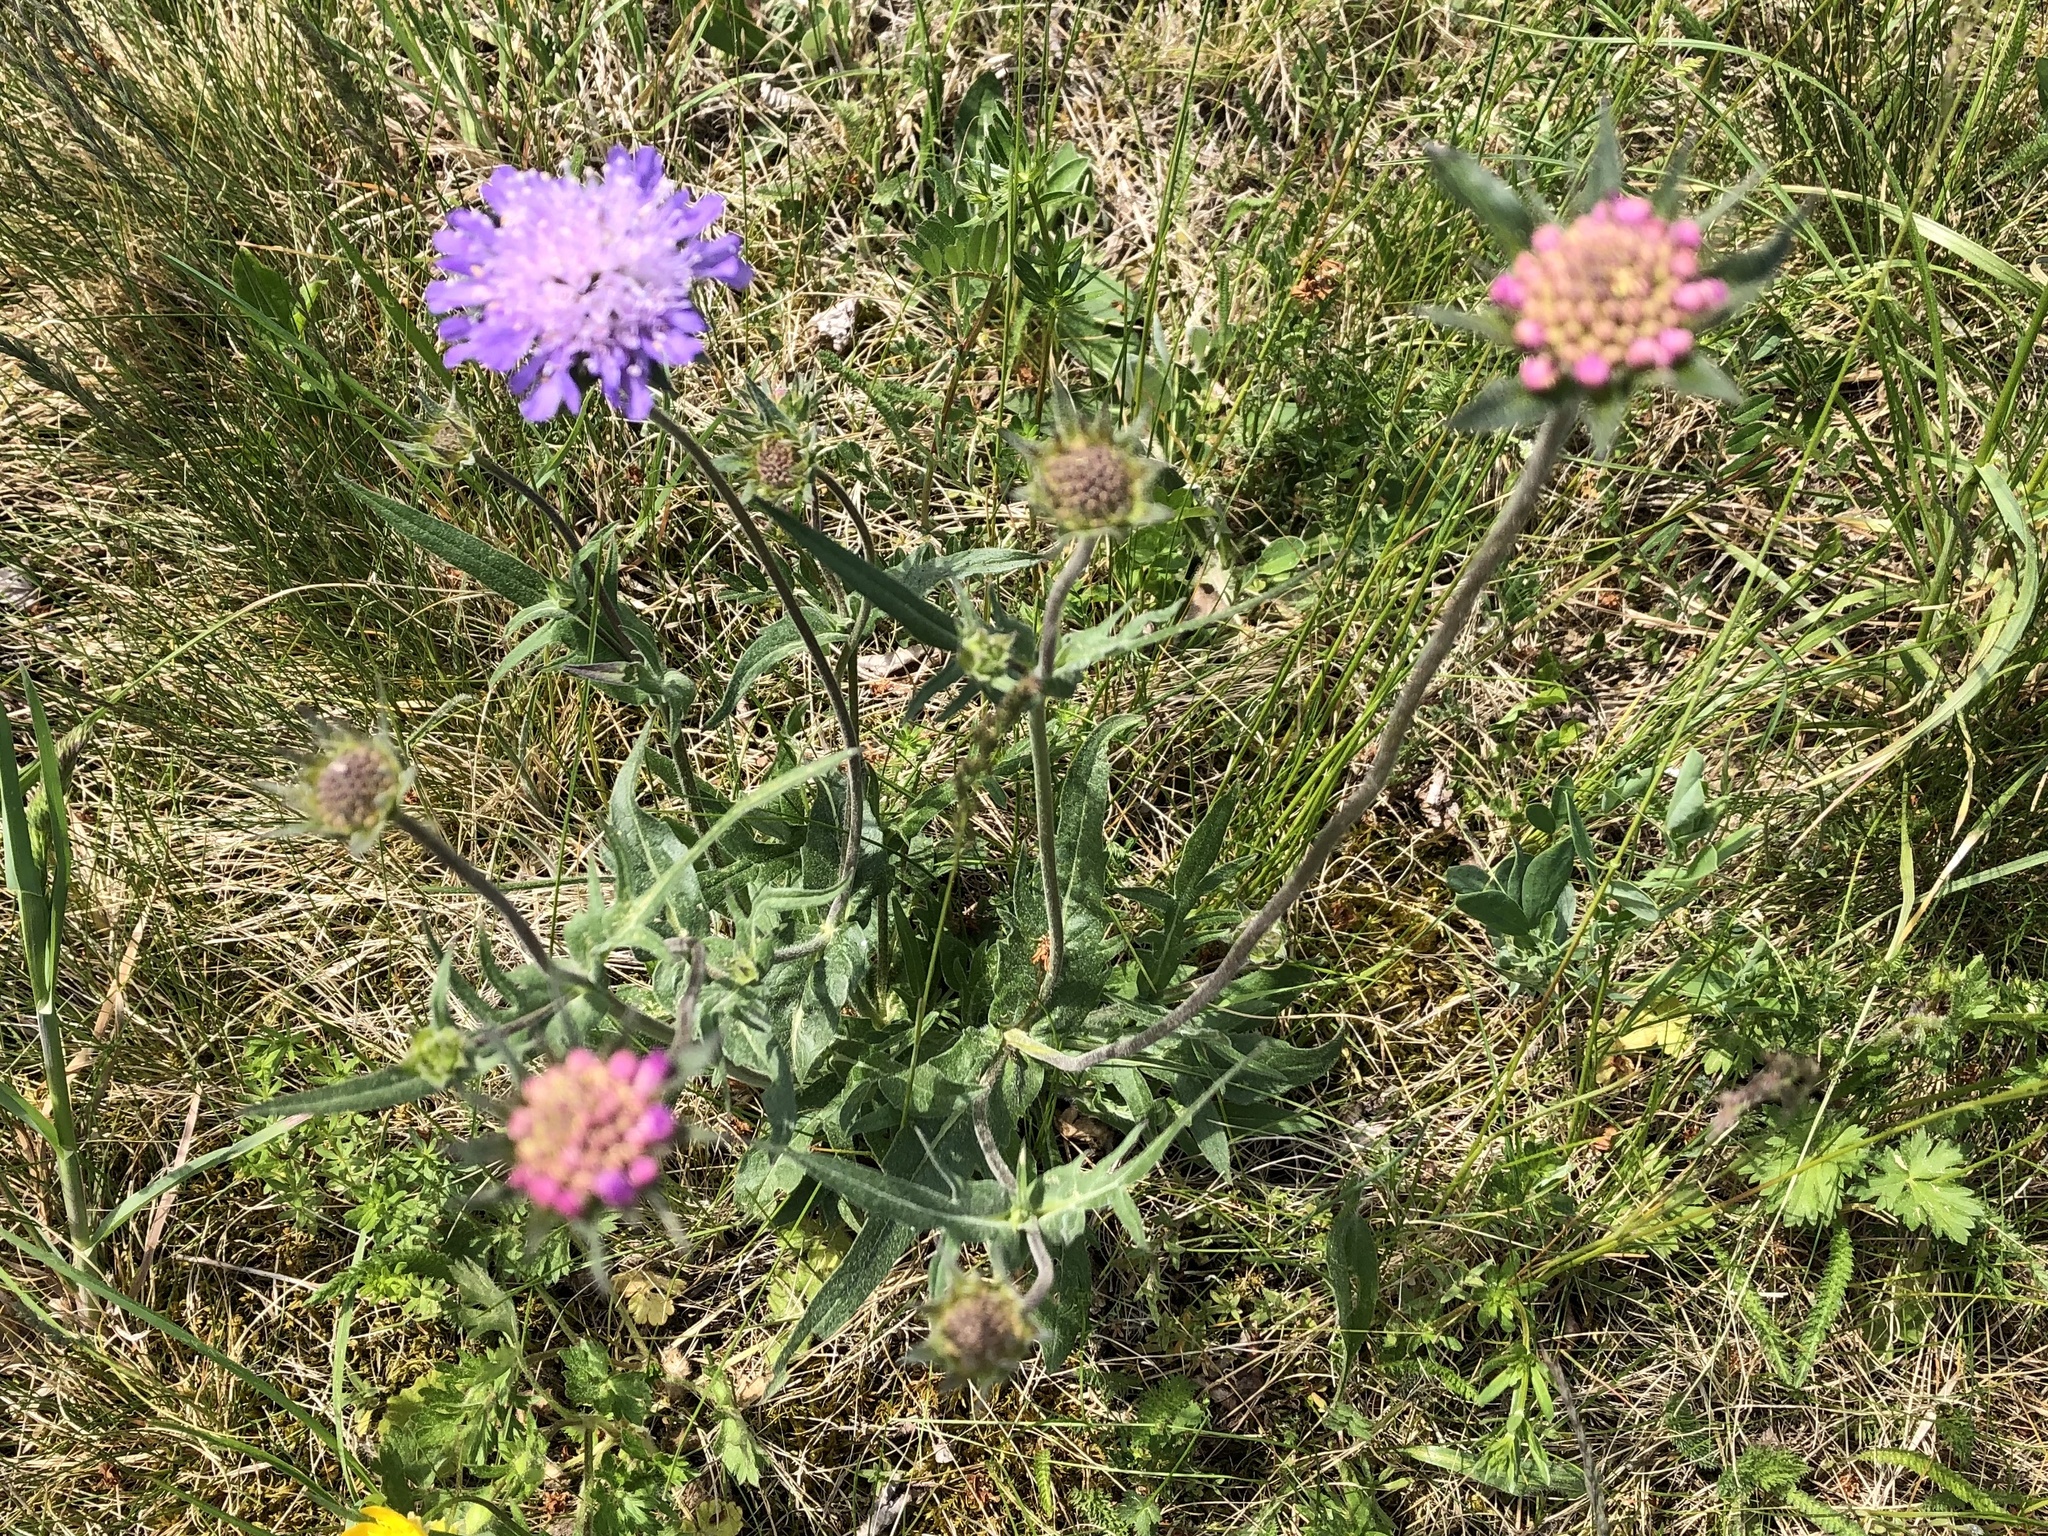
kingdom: Plantae
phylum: Tracheophyta
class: Magnoliopsida
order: Dipsacales
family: Caprifoliaceae
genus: Knautia
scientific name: Knautia arvensis
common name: Field scabiosa
